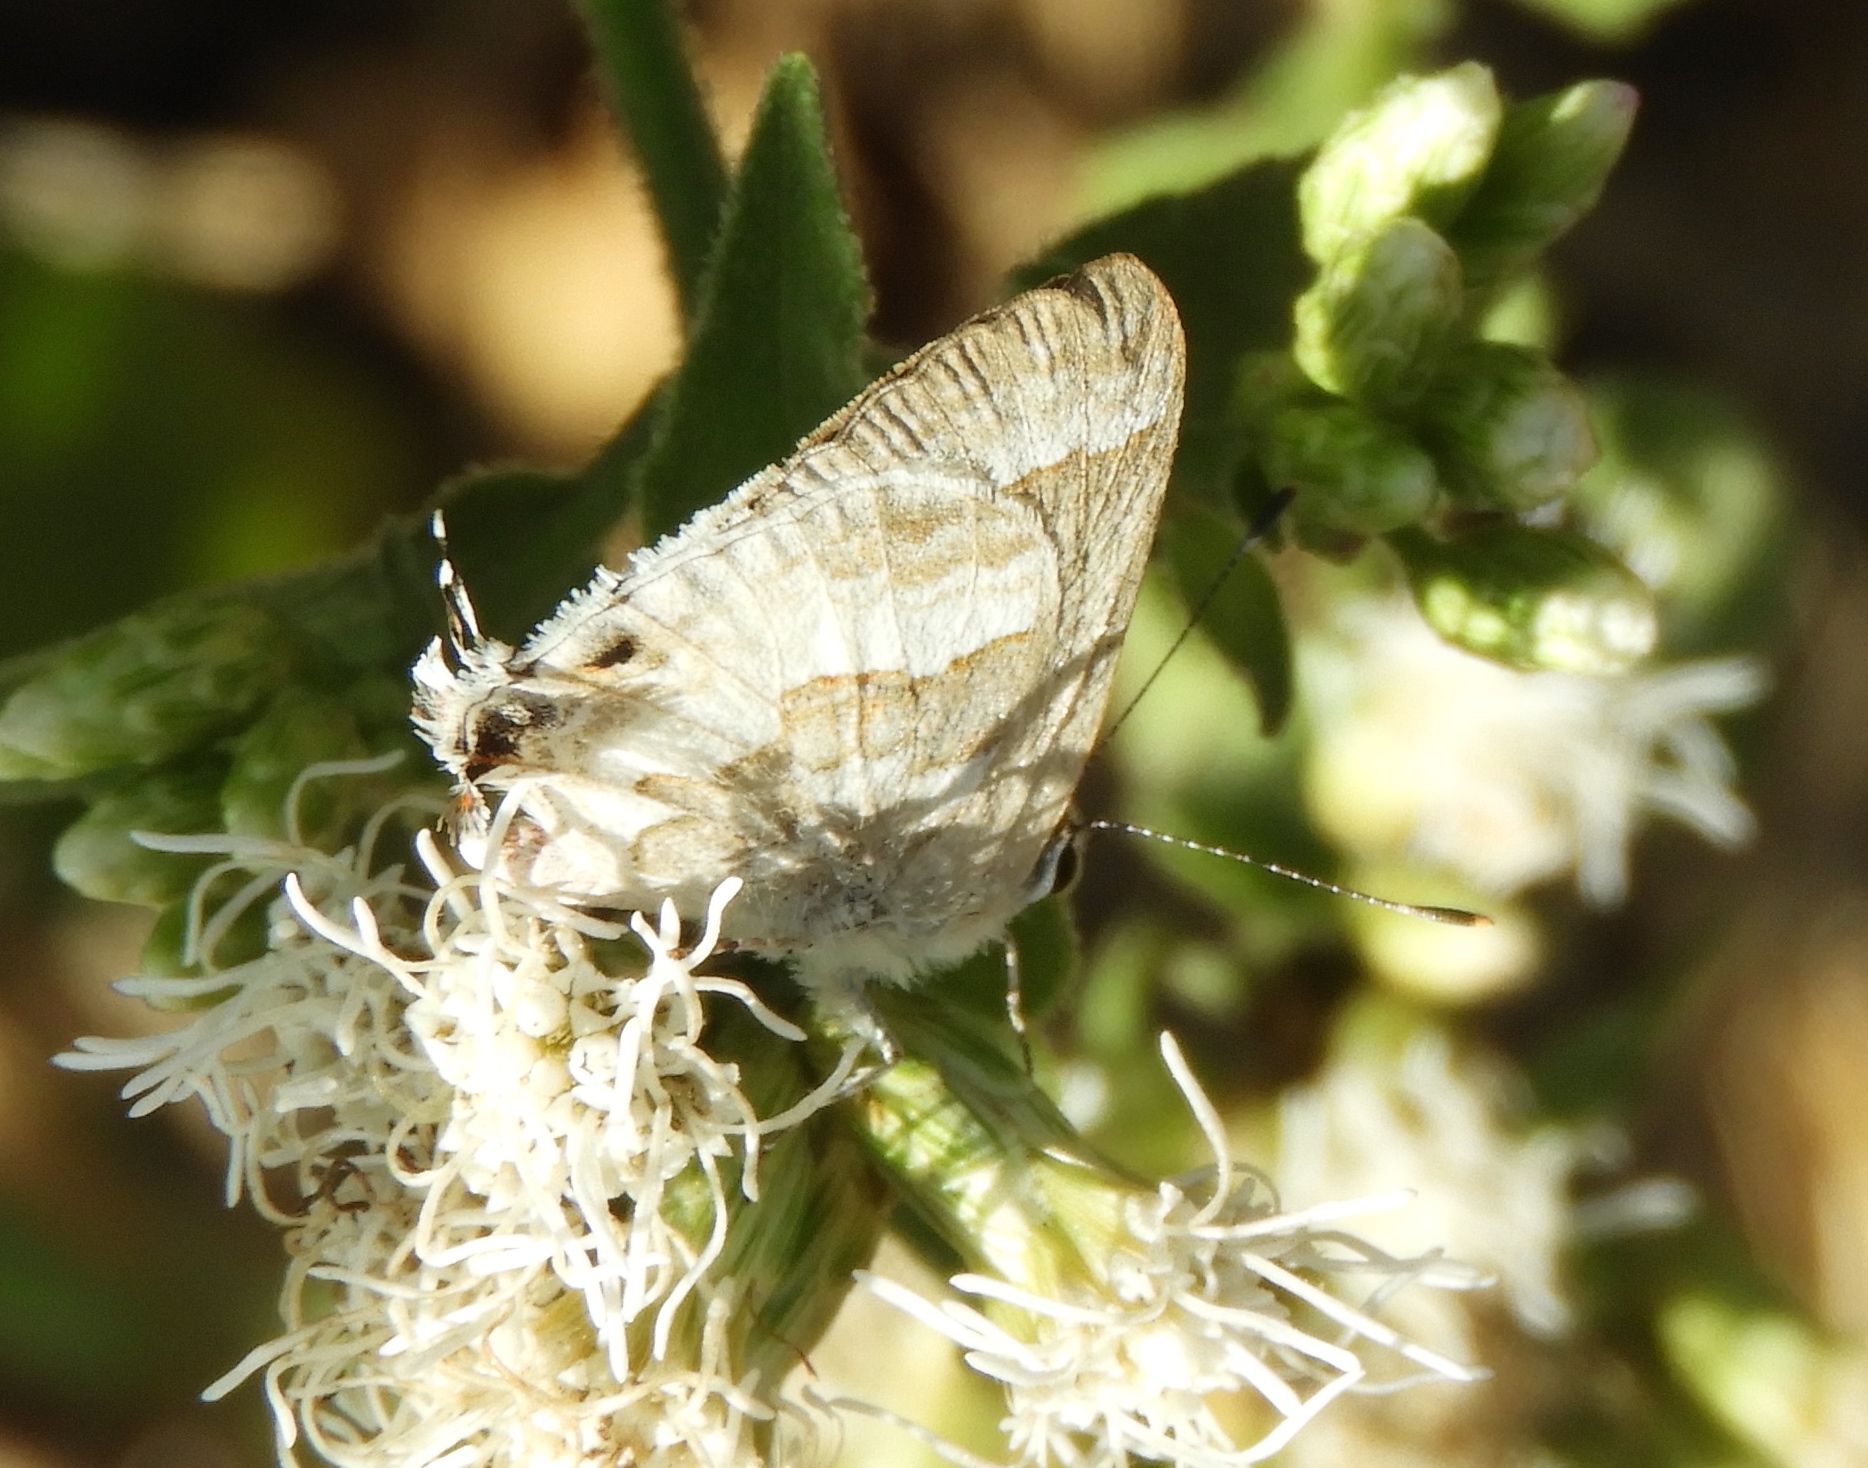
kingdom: Animalia
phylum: Arthropoda
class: Insecta
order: Lepidoptera
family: Lycaenidae
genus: Strymon
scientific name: Strymon albata
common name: White scrub-hairstreak
